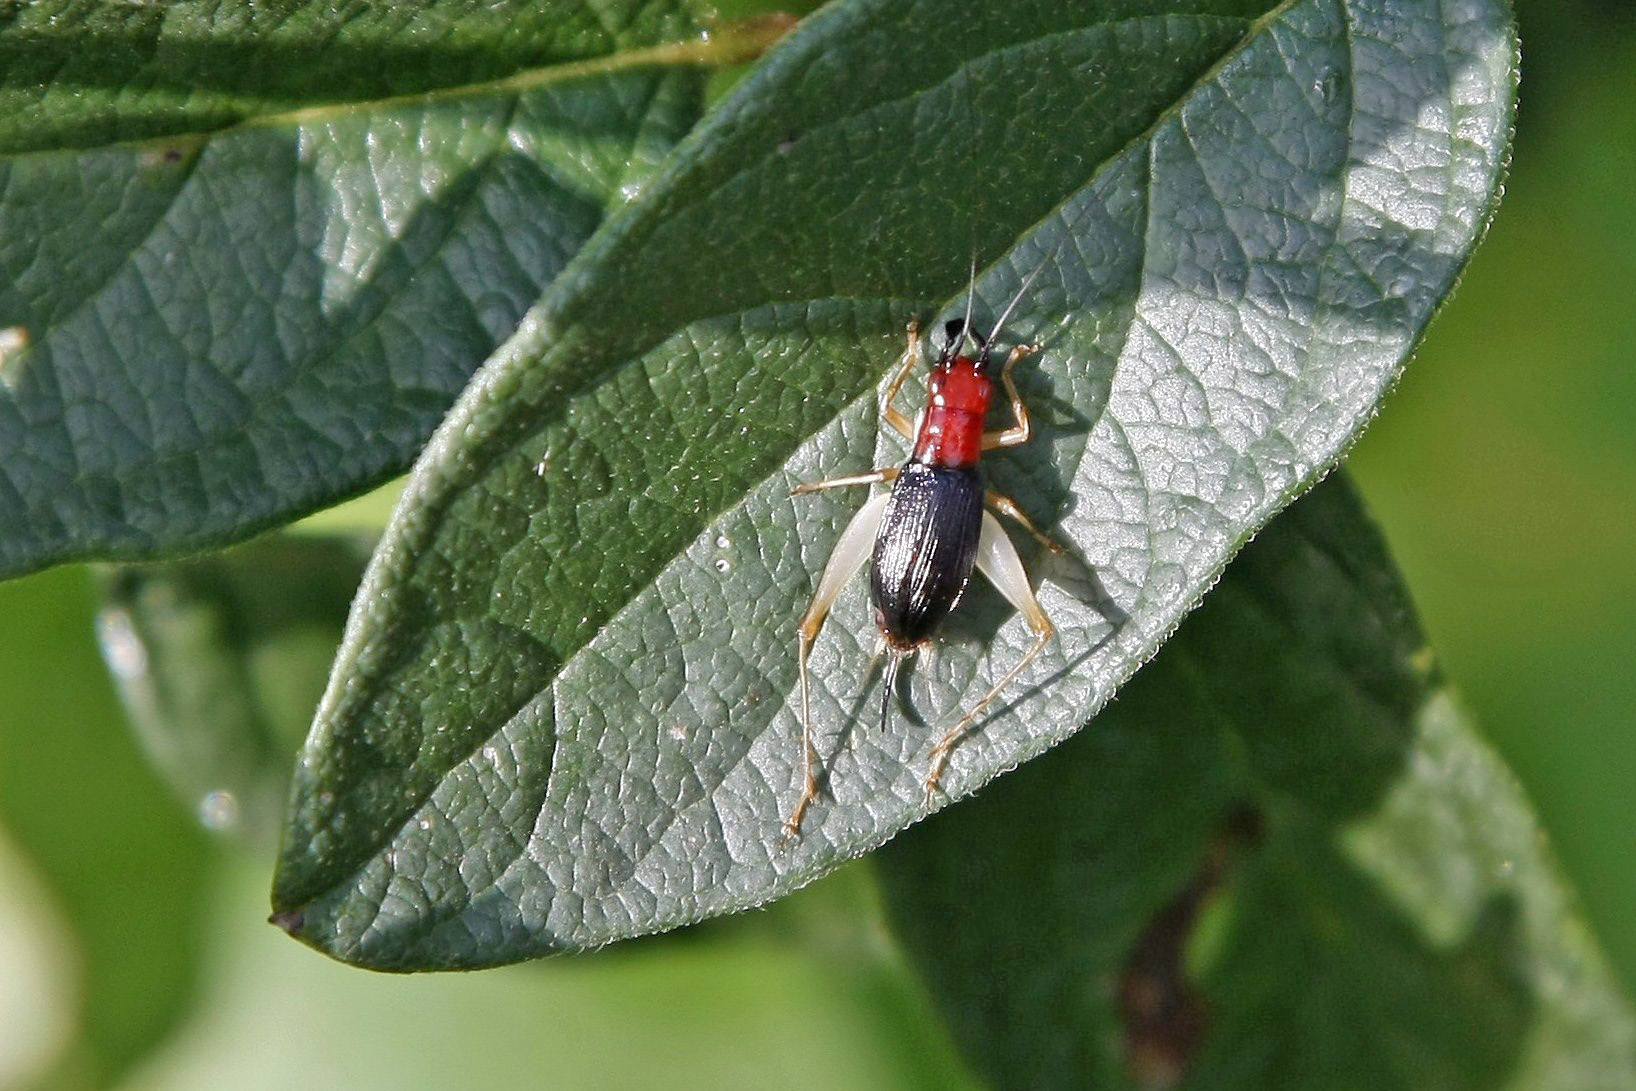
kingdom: Animalia
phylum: Arthropoda
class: Insecta
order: Orthoptera
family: Trigonidiidae
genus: Phyllopalpus
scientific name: Phyllopalpus pulchellus
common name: Handsome trig
